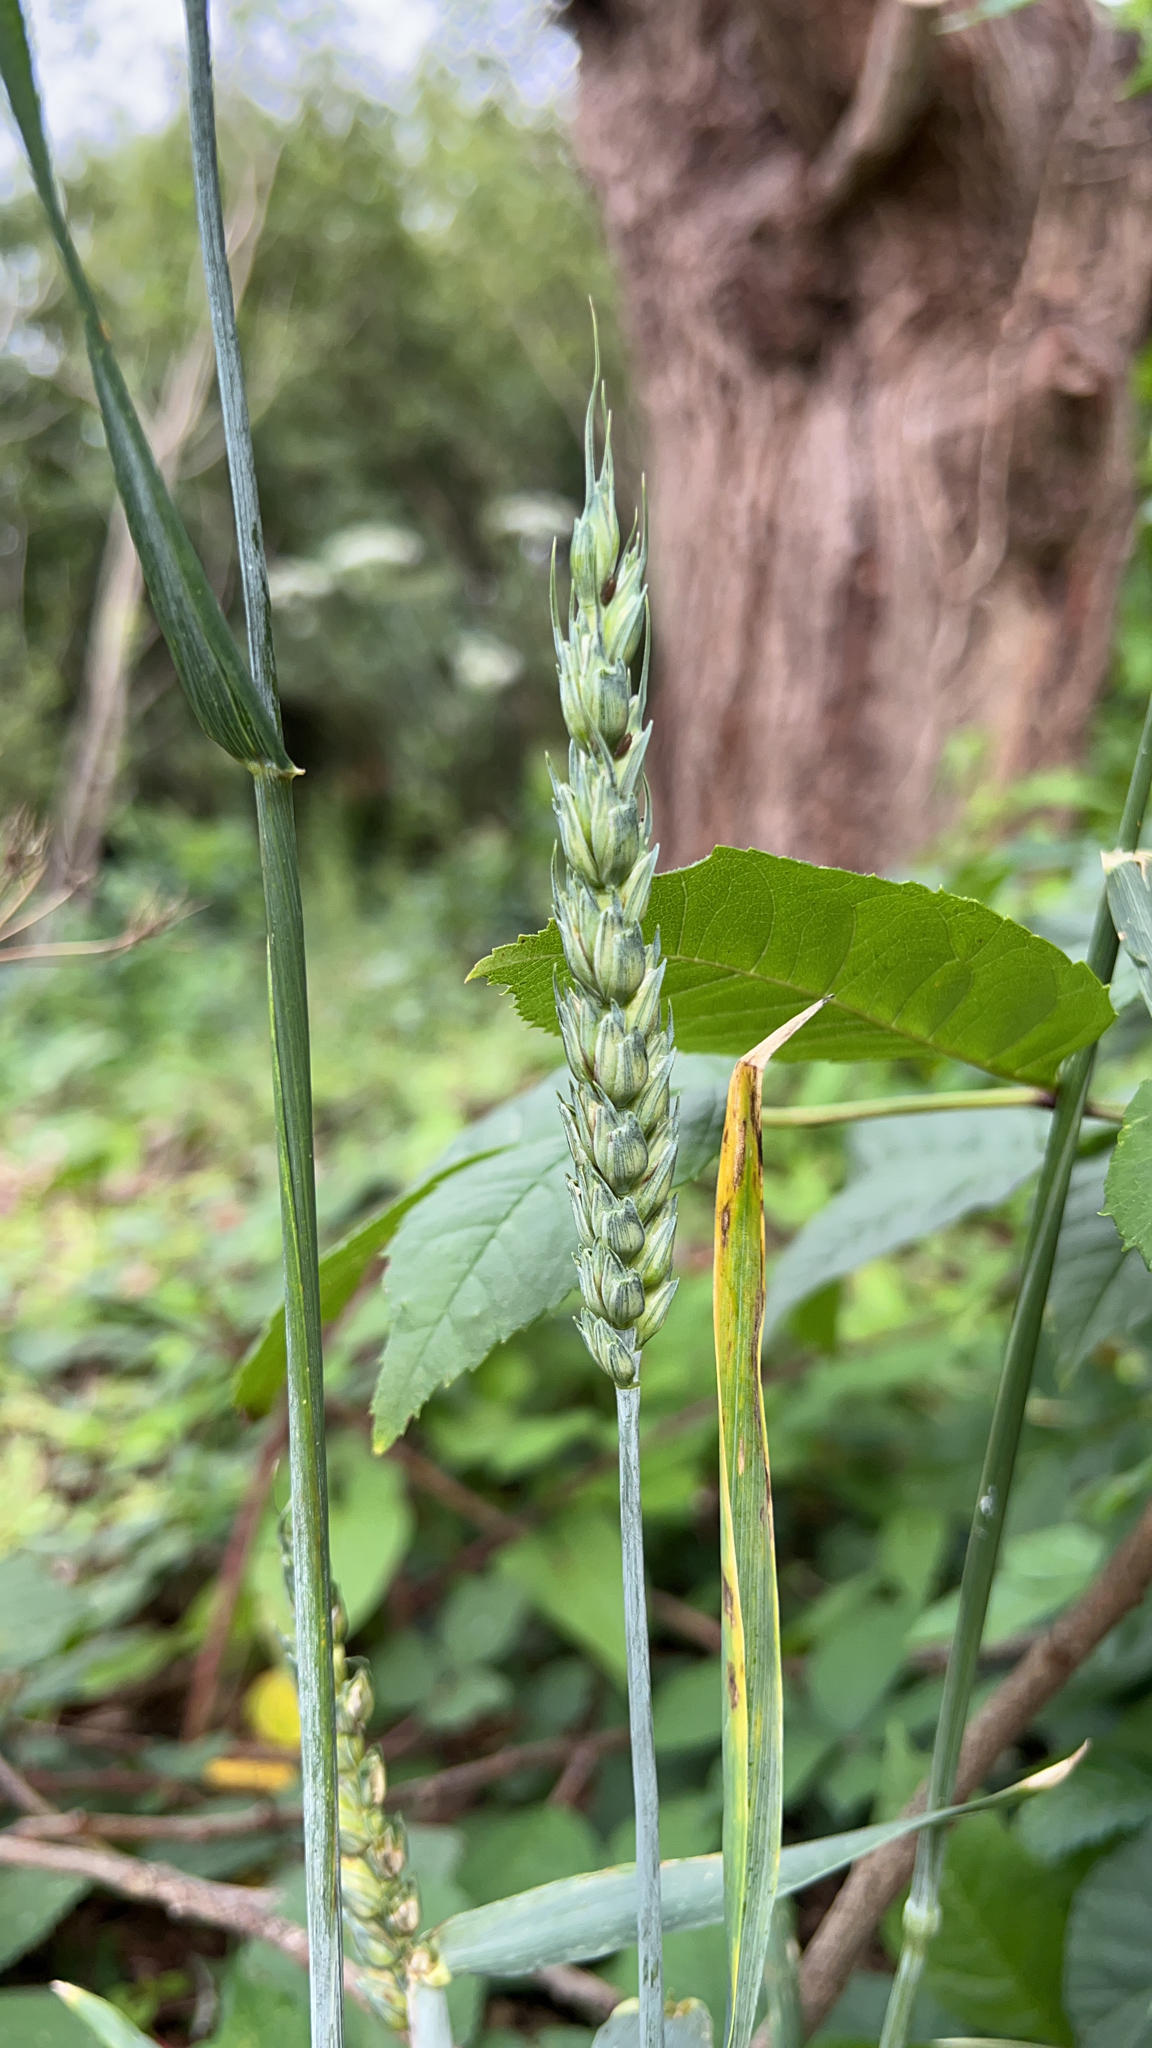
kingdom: Plantae
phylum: Tracheophyta
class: Liliopsida
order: Poales
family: Poaceae
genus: Triticum
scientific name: Triticum aestivum
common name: Common wheat
